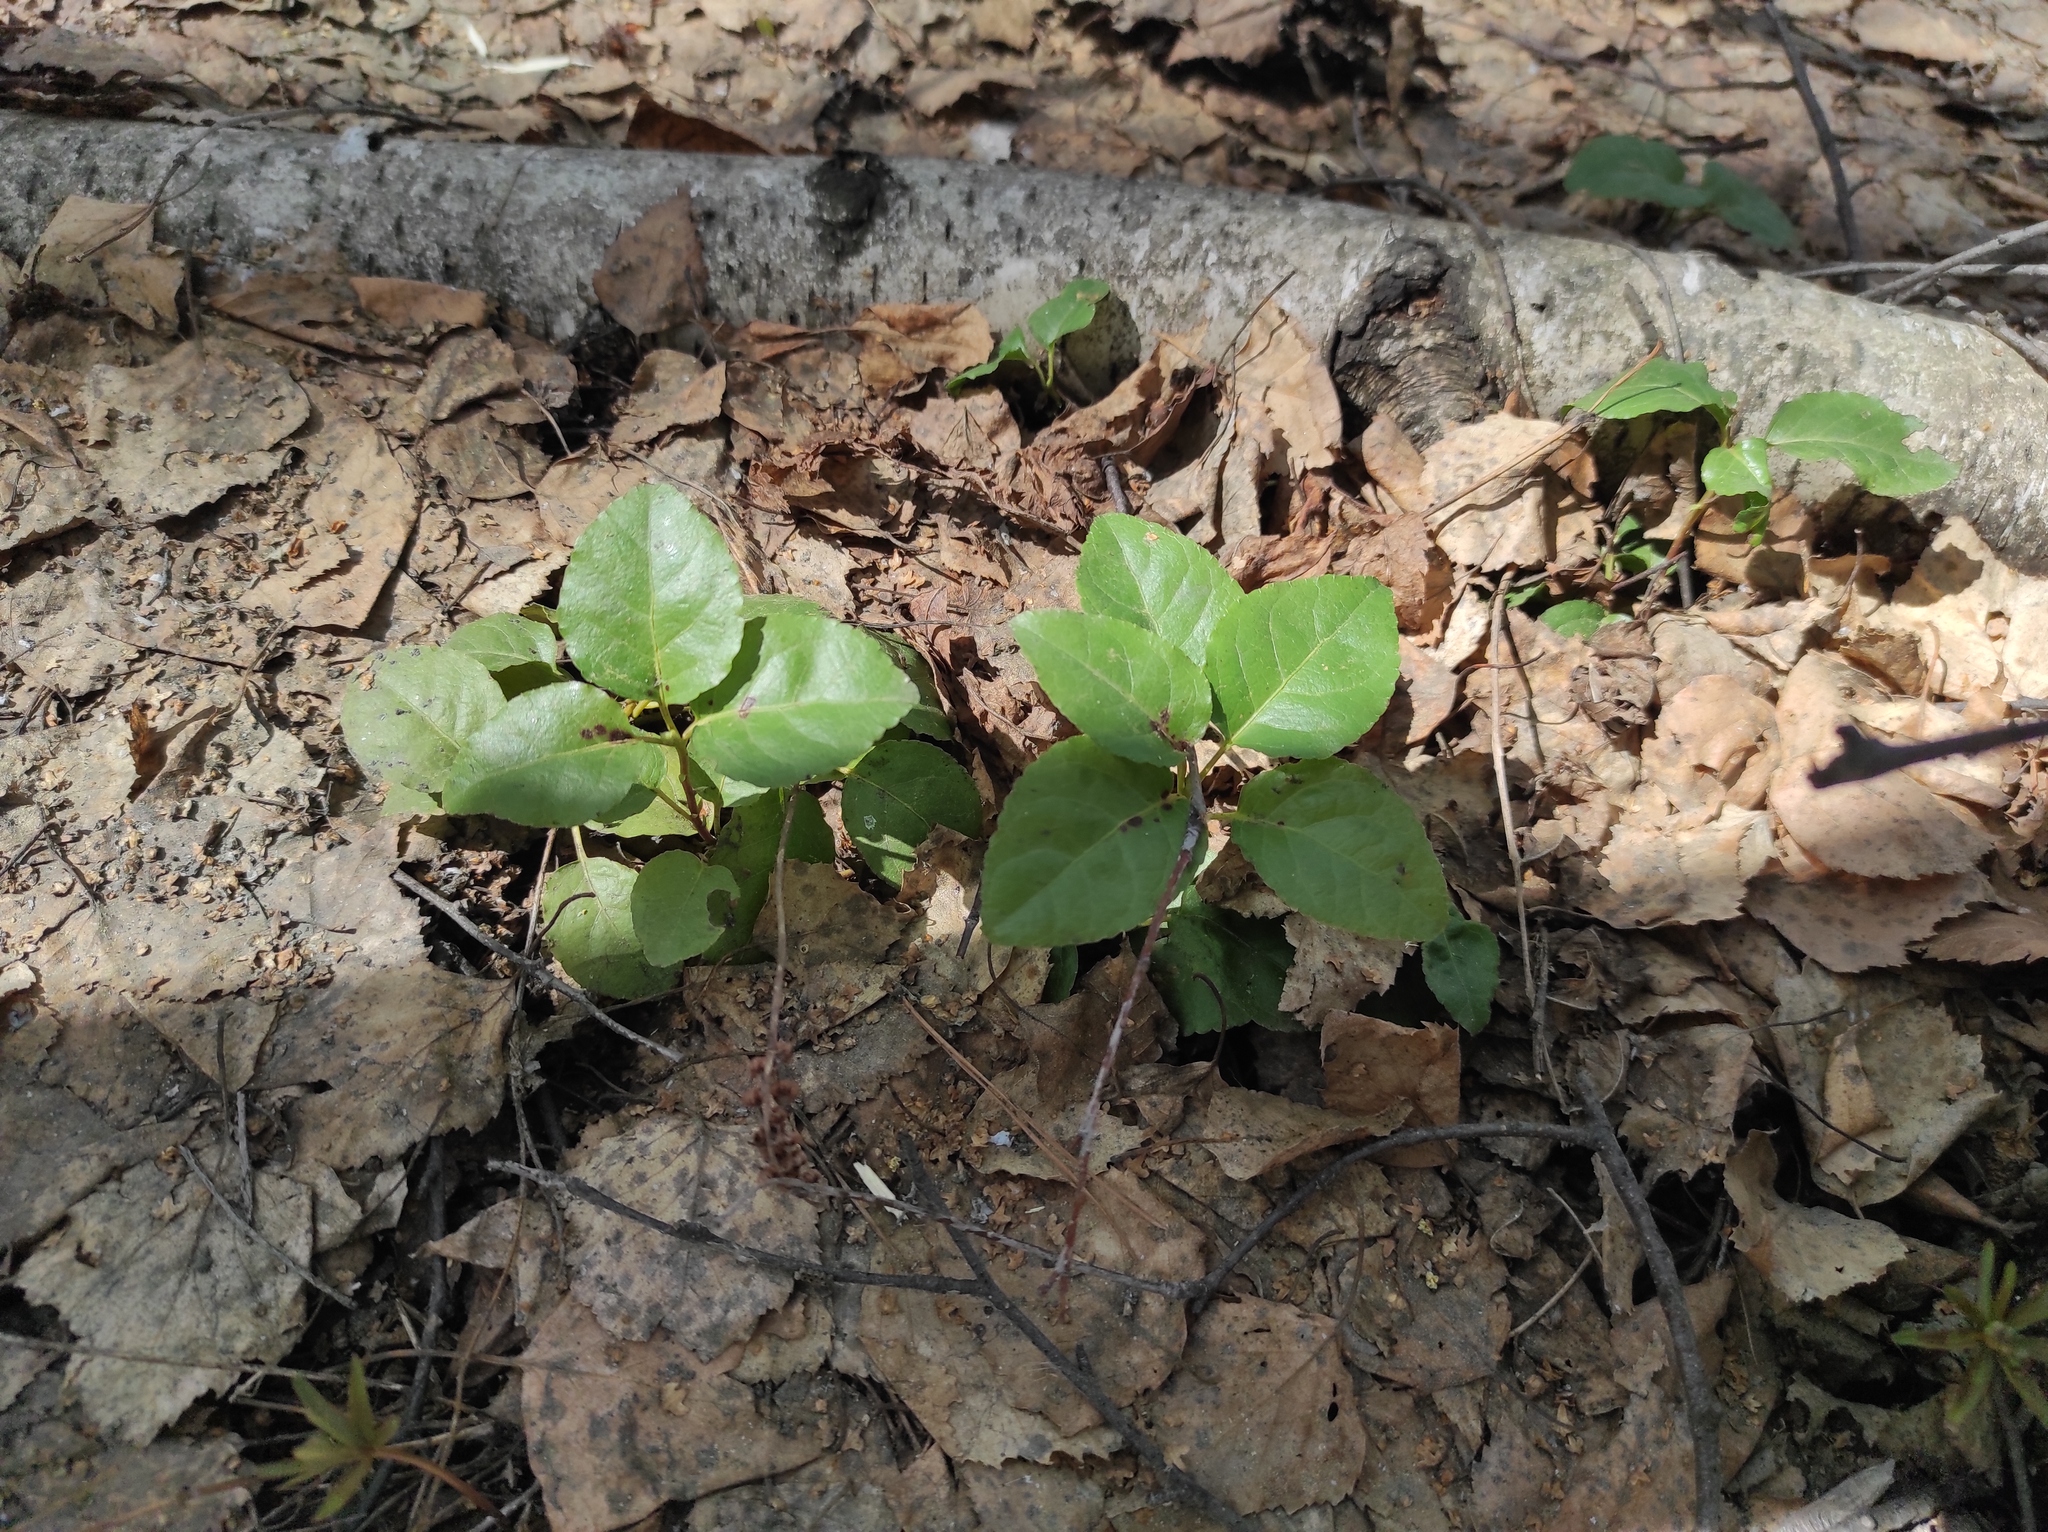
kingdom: Plantae
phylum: Tracheophyta
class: Magnoliopsida
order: Ericales
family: Ericaceae
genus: Orthilia
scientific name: Orthilia secunda
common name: One-sided orthilia
